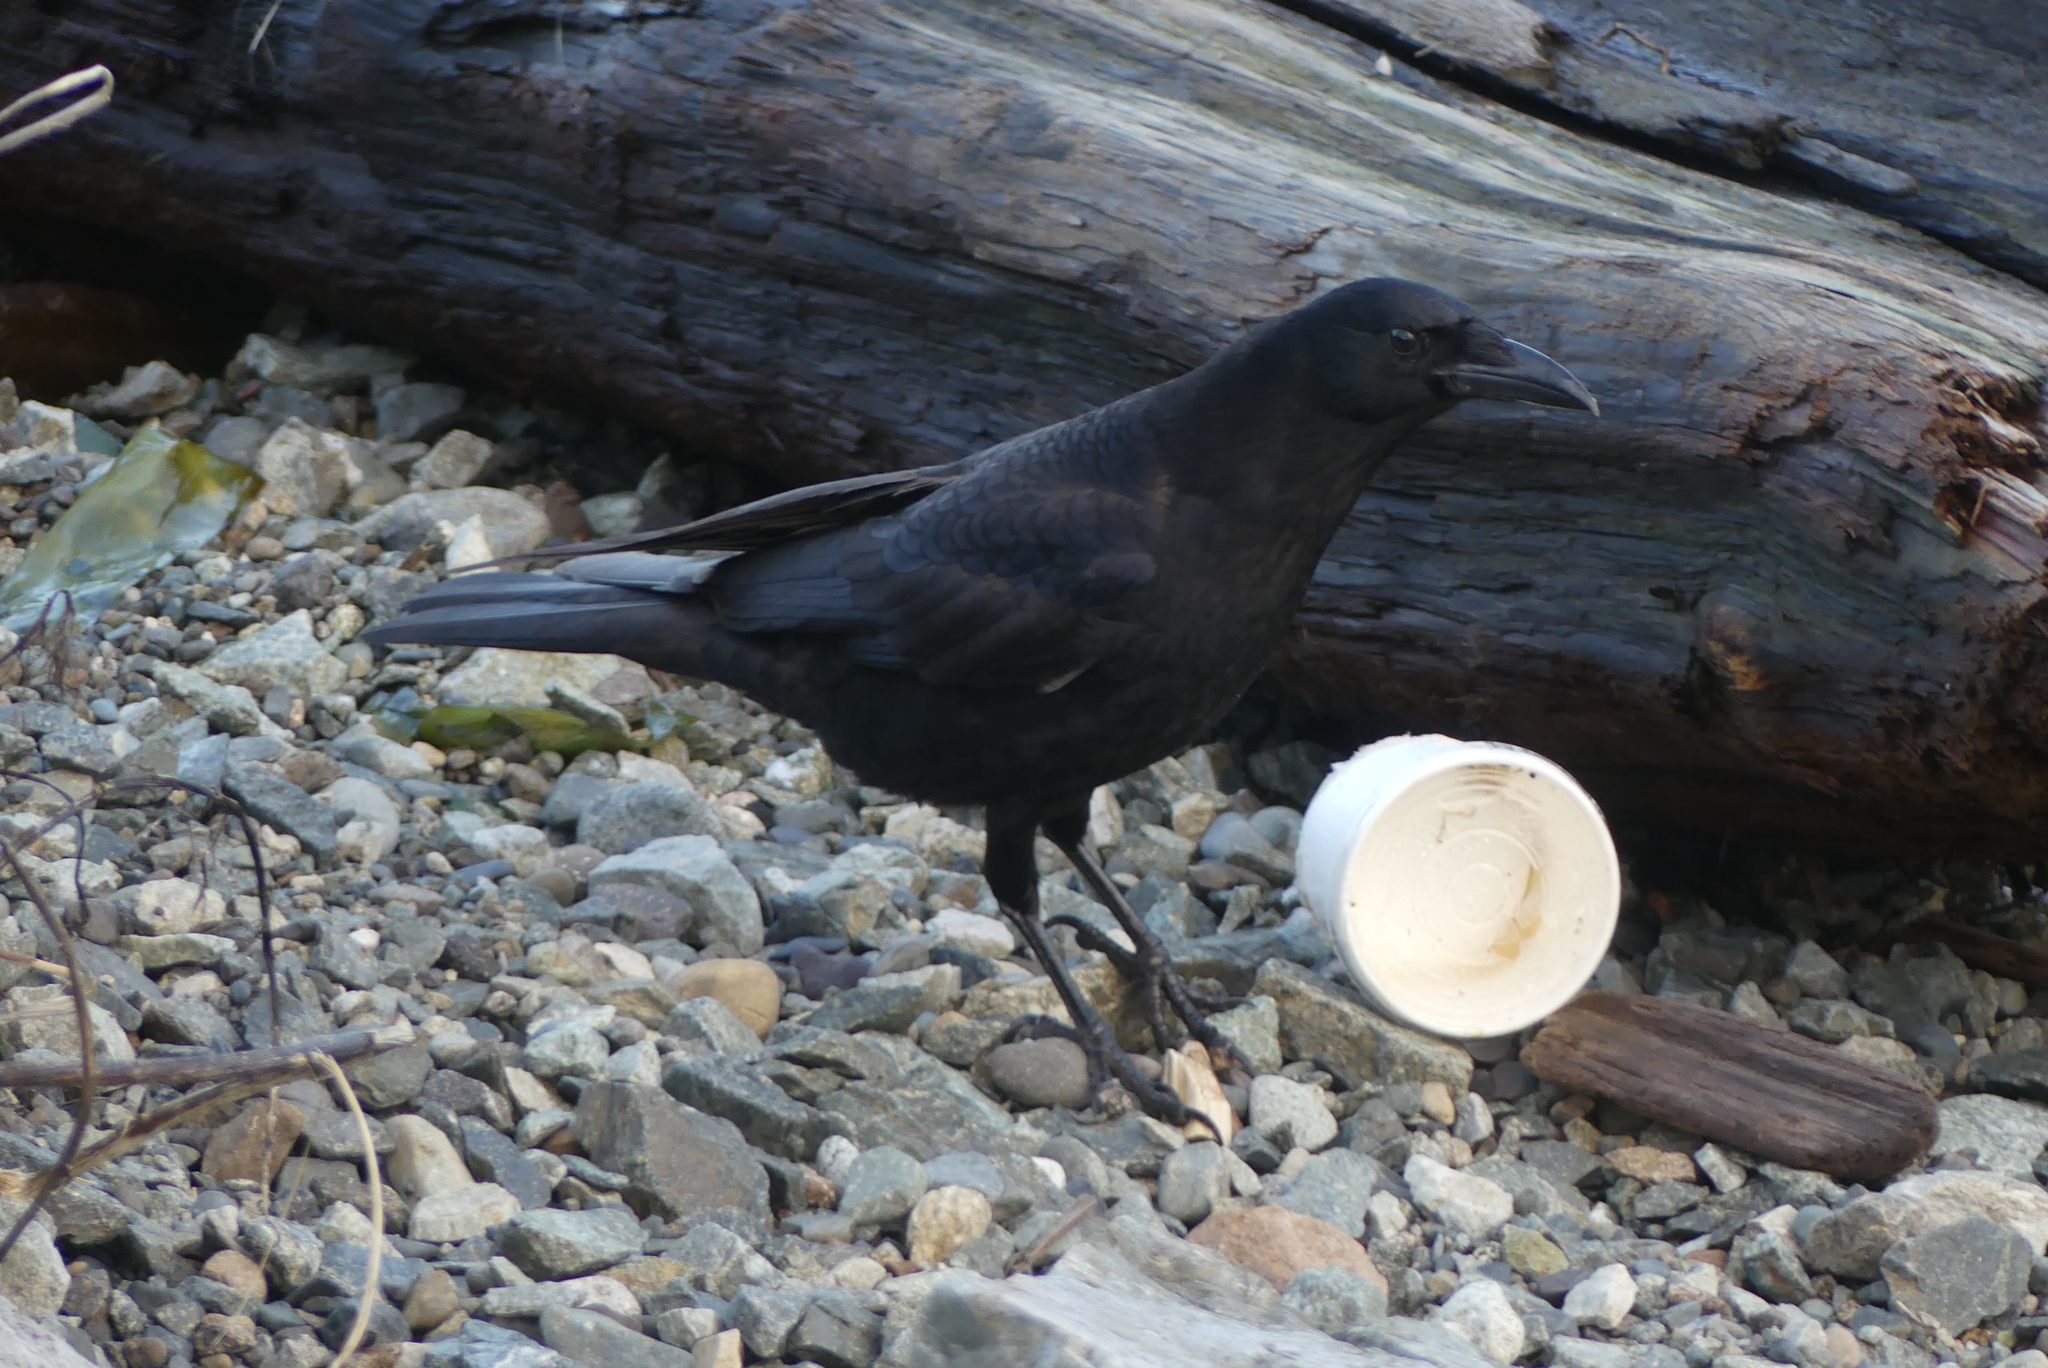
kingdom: Animalia
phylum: Chordata
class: Aves
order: Passeriformes
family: Corvidae
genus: Corvus
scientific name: Corvus brachyrhynchos
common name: American crow
